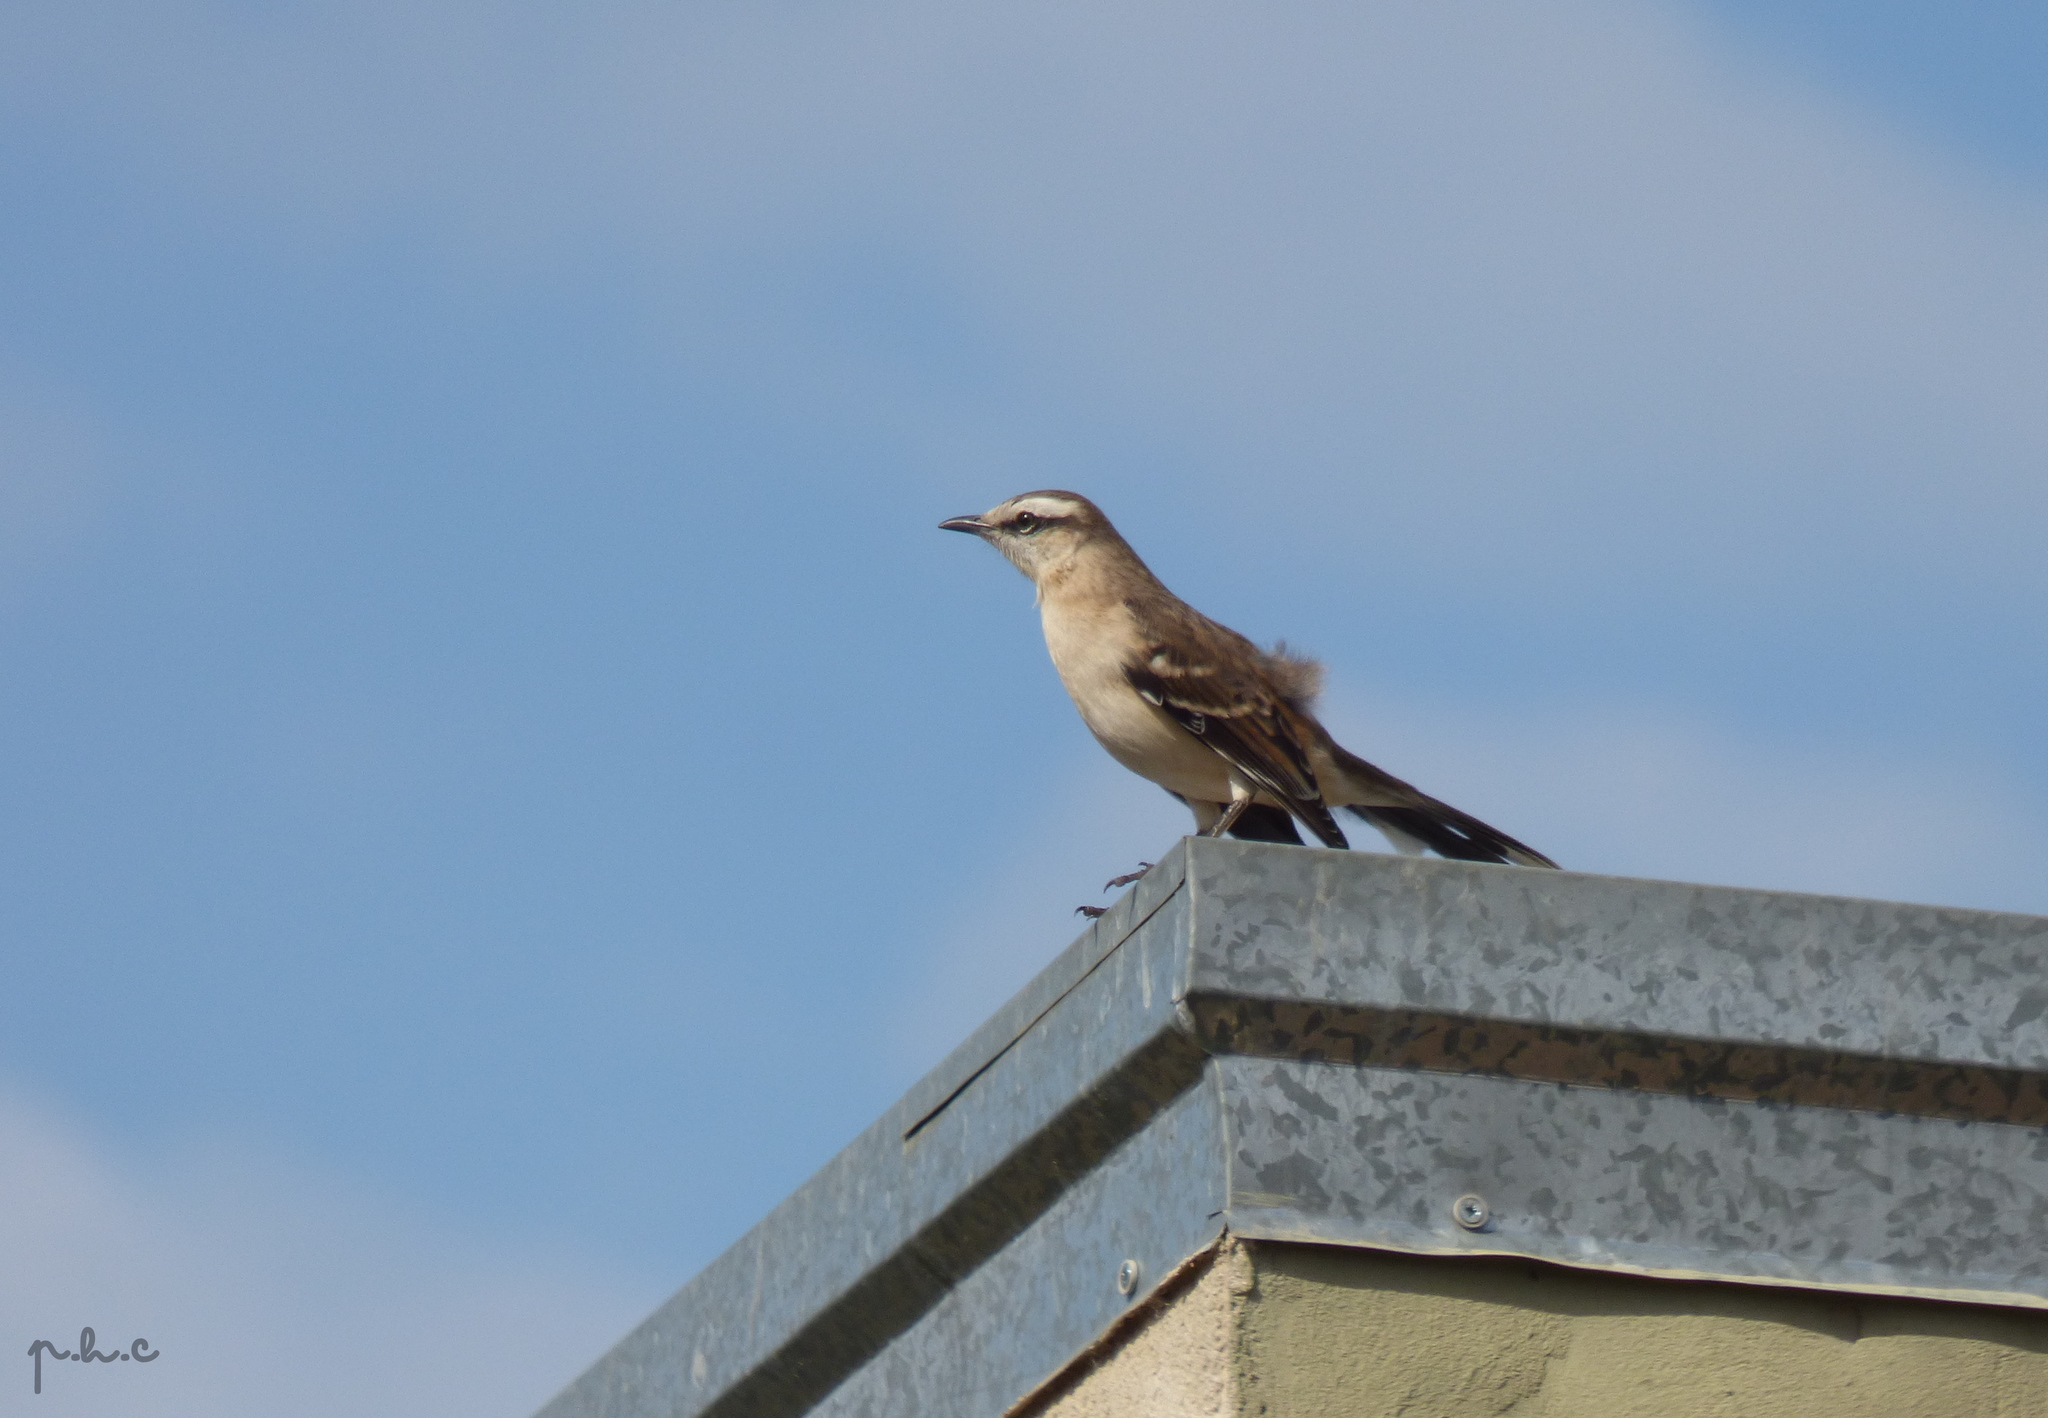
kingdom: Animalia
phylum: Chordata
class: Aves
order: Passeriformes
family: Mimidae
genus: Mimus
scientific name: Mimus saturninus
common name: Chalk-browed mockingbird
